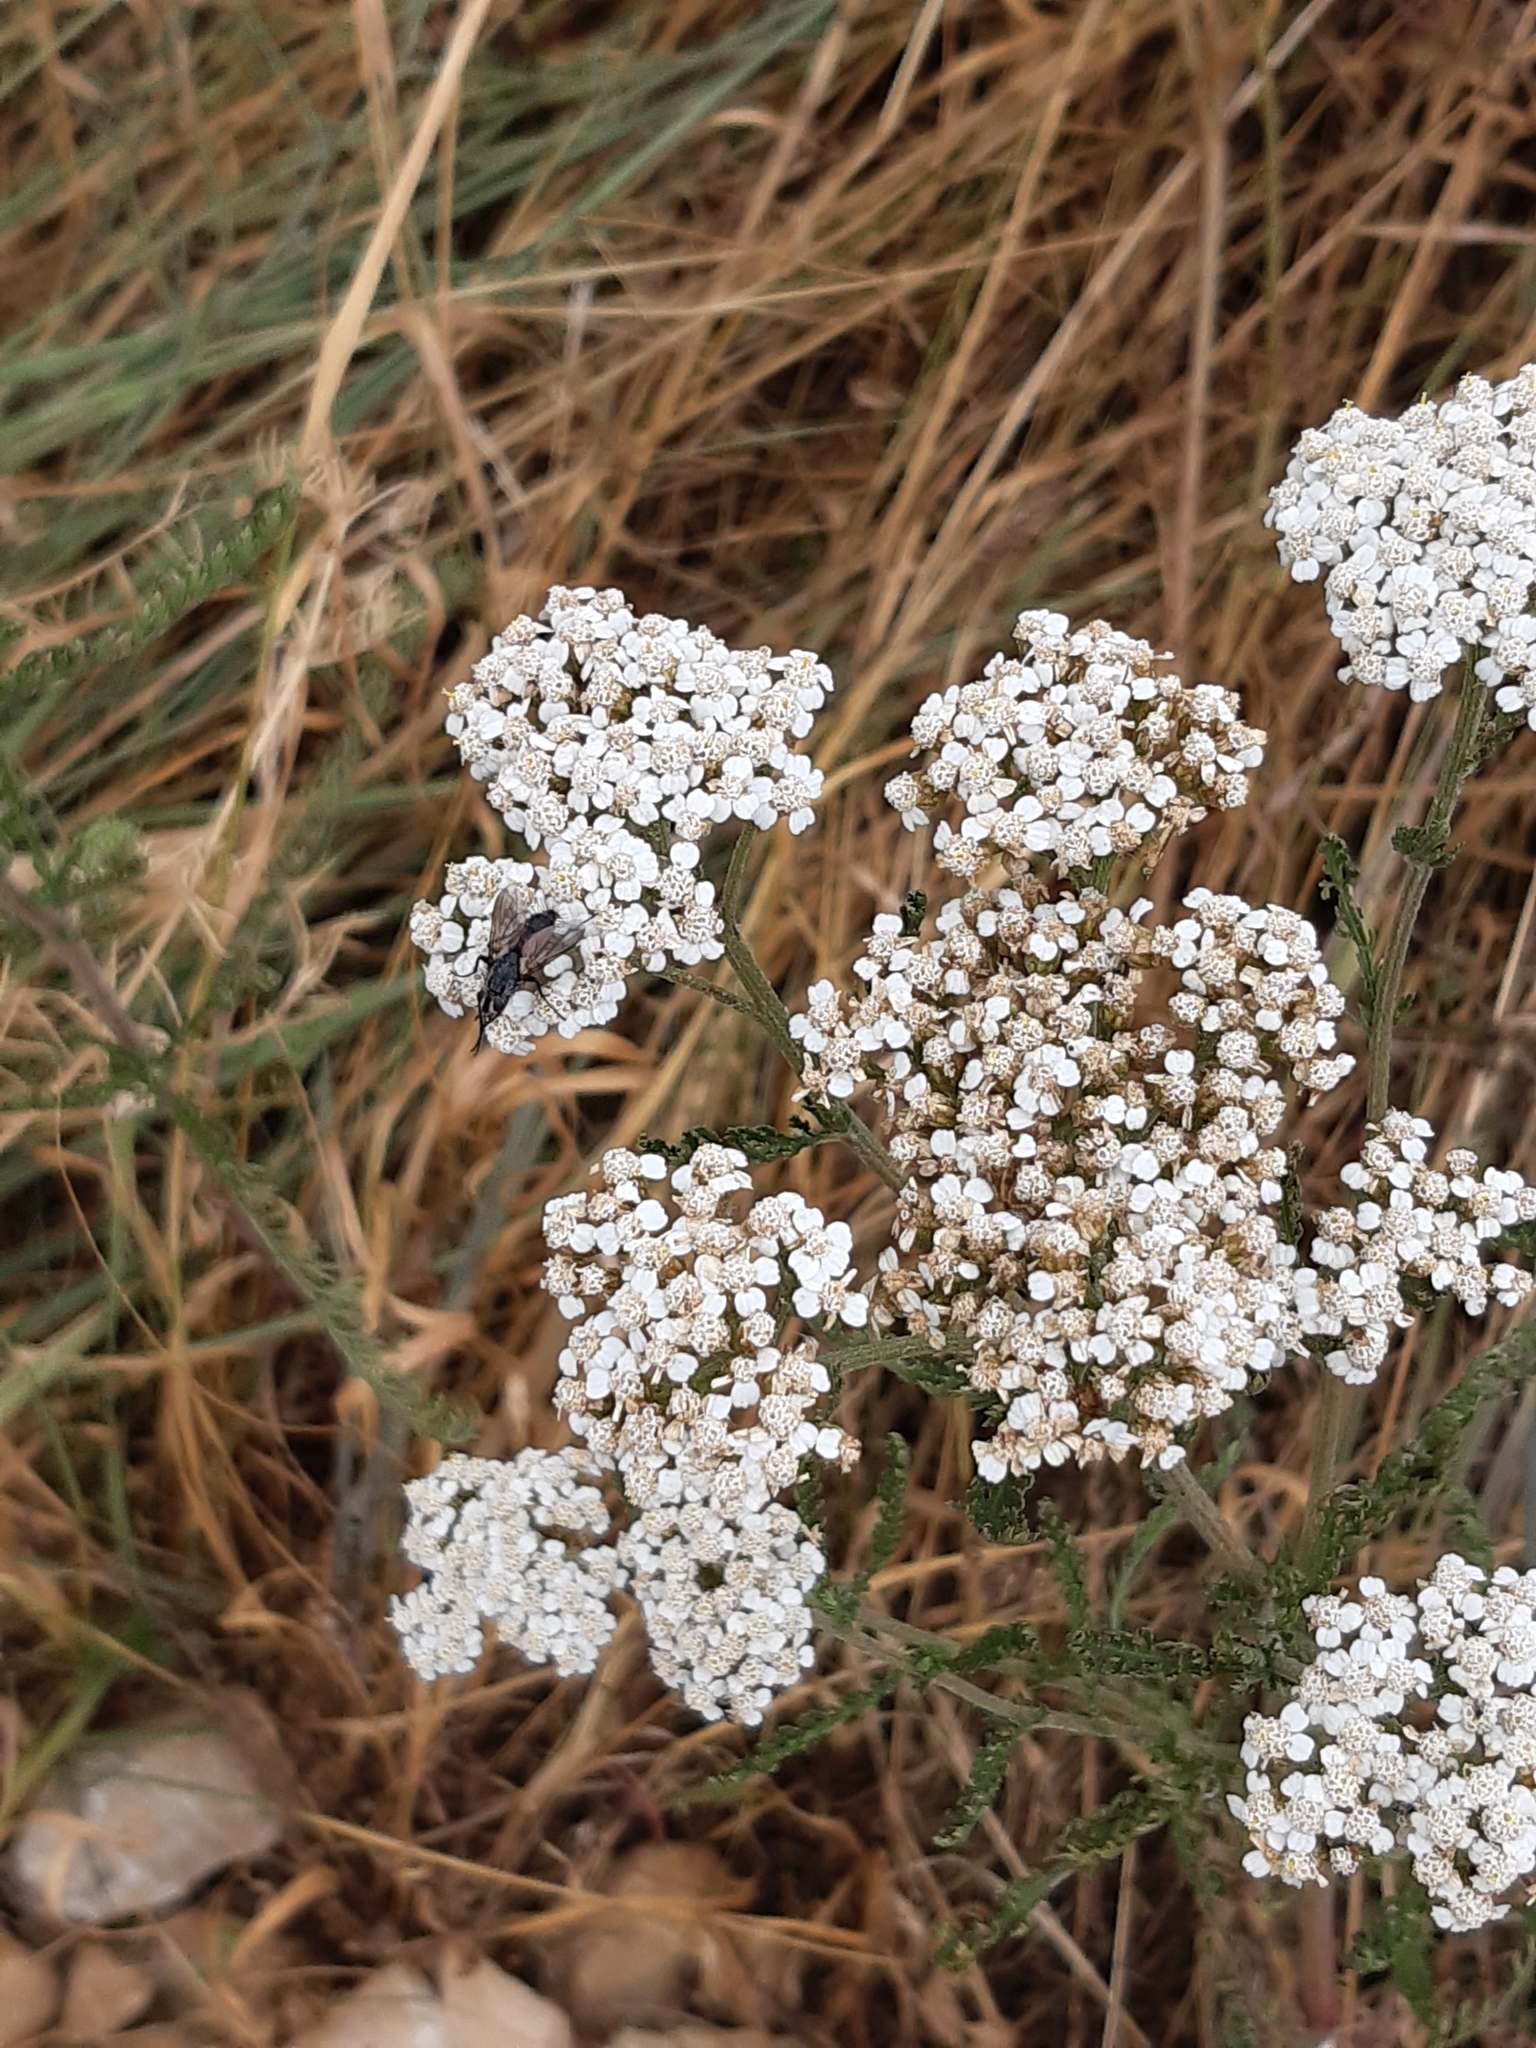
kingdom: Plantae
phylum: Tracheophyta
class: Magnoliopsida
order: Asterales
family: Asteraceae
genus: Achillea
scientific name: Achillea millefolium
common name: Yarrow
